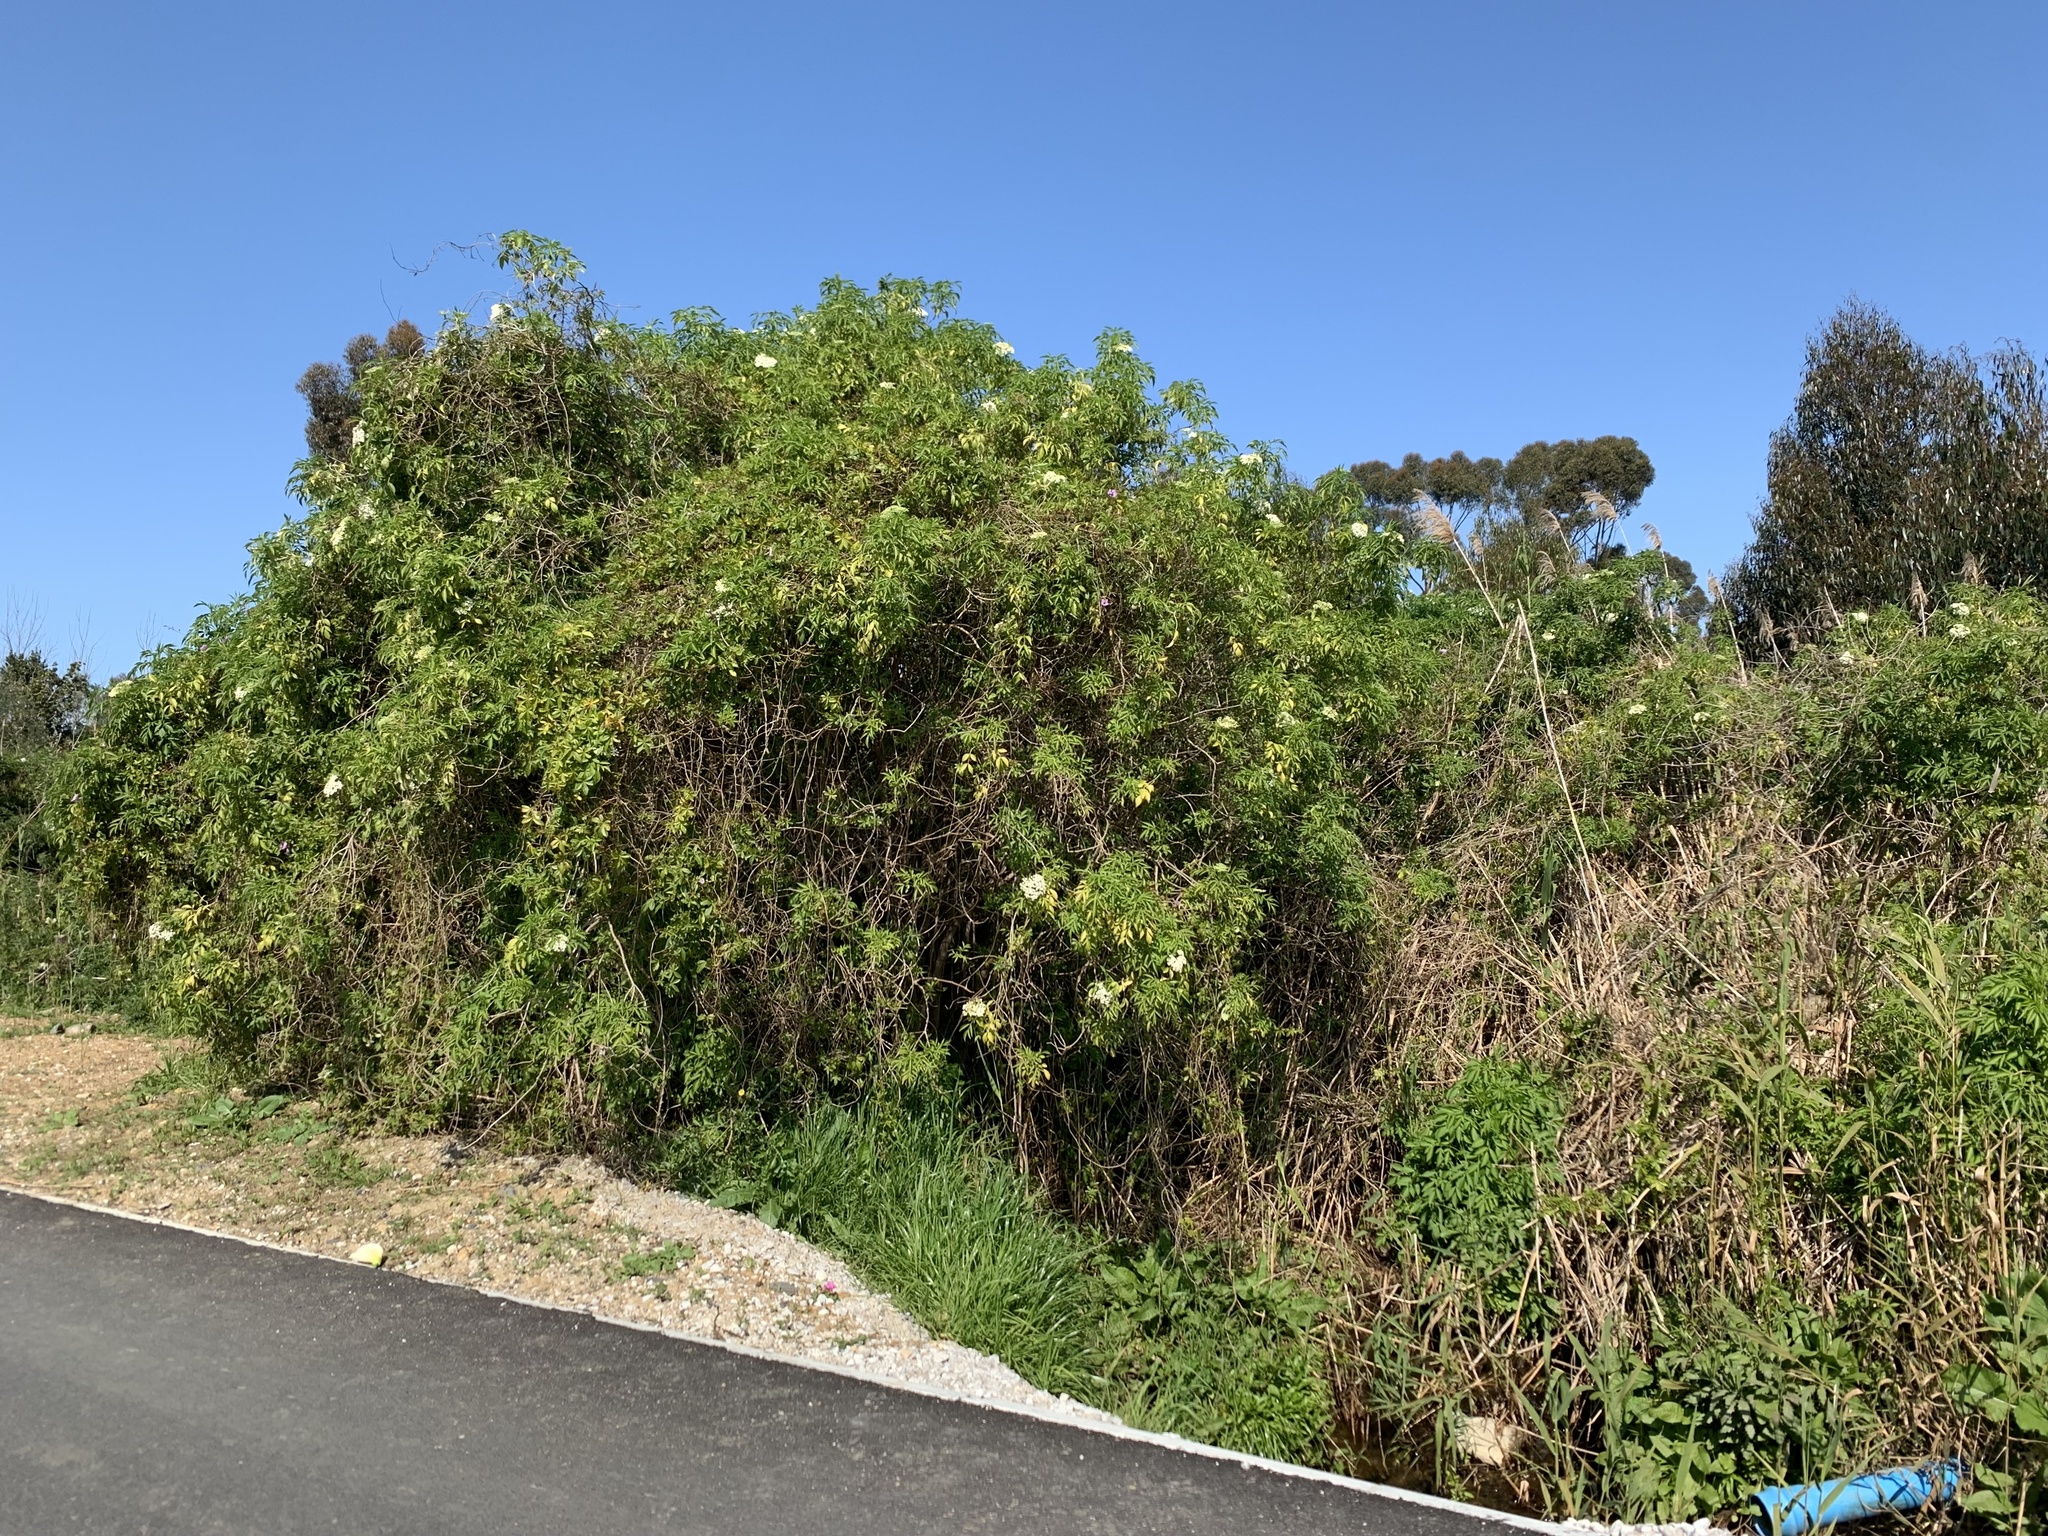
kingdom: Plantae
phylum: Tracheophyta
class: Magnoliopsida
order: Dipsacales
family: Viburnaceae
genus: Sambucus
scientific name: Sambucus nigra
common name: Elder
